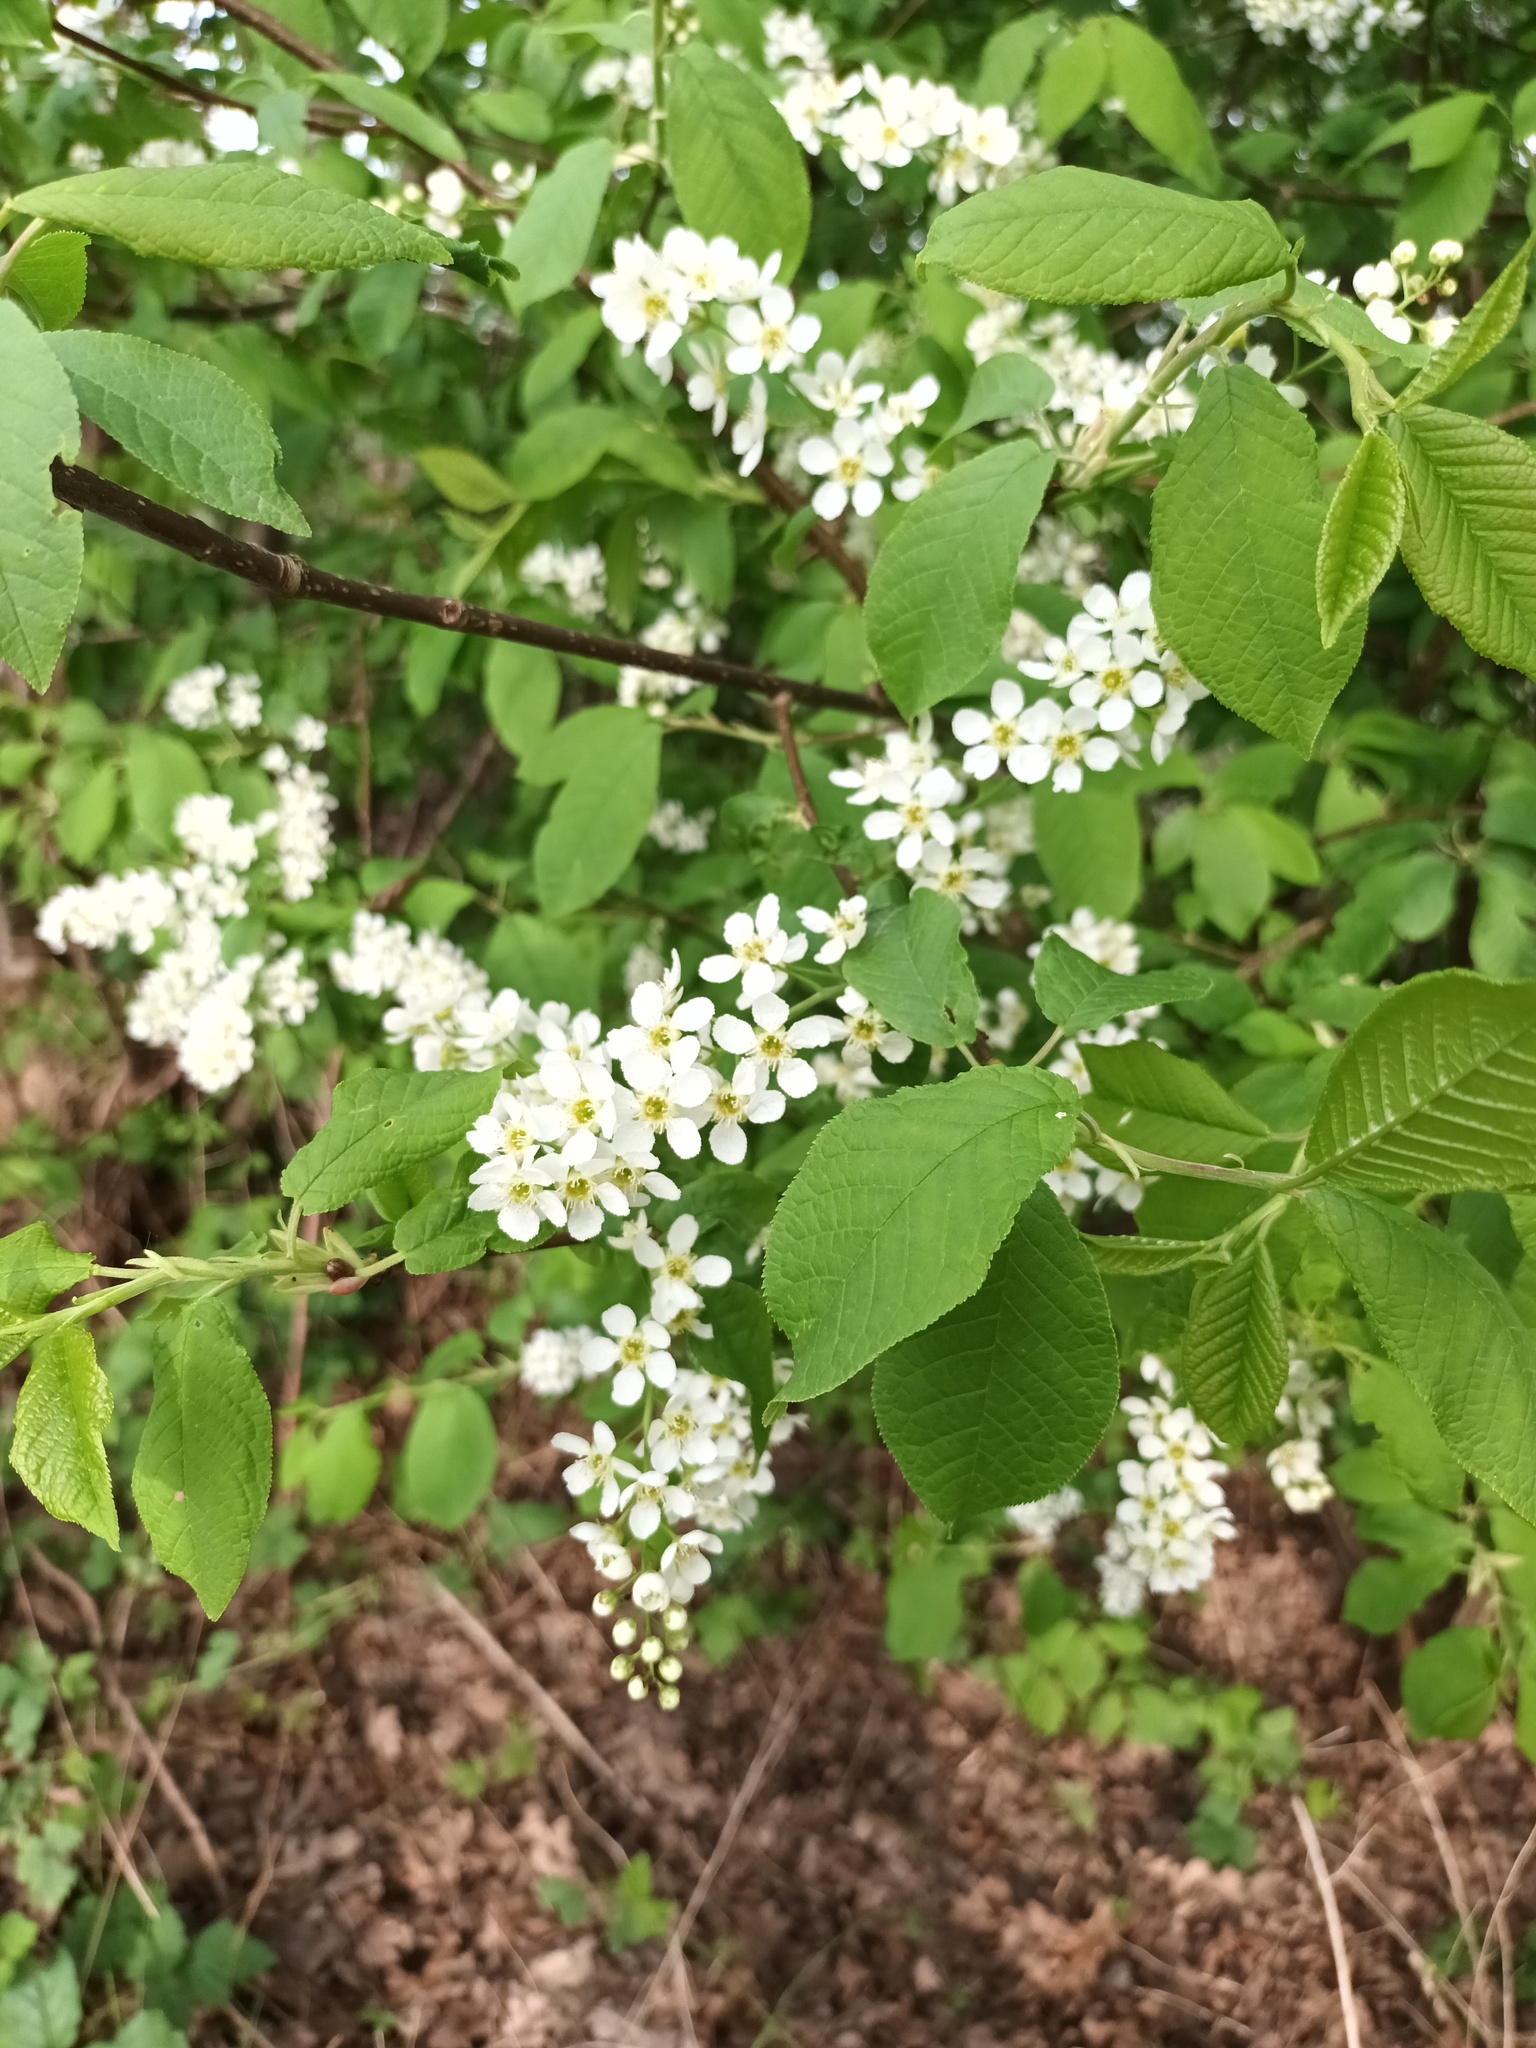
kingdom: Plantae
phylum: Tracheophyta
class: Magnoliopsida
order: Rosales
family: Rosaceae
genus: Prunus
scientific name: Prunus padus
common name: Bird cherry
